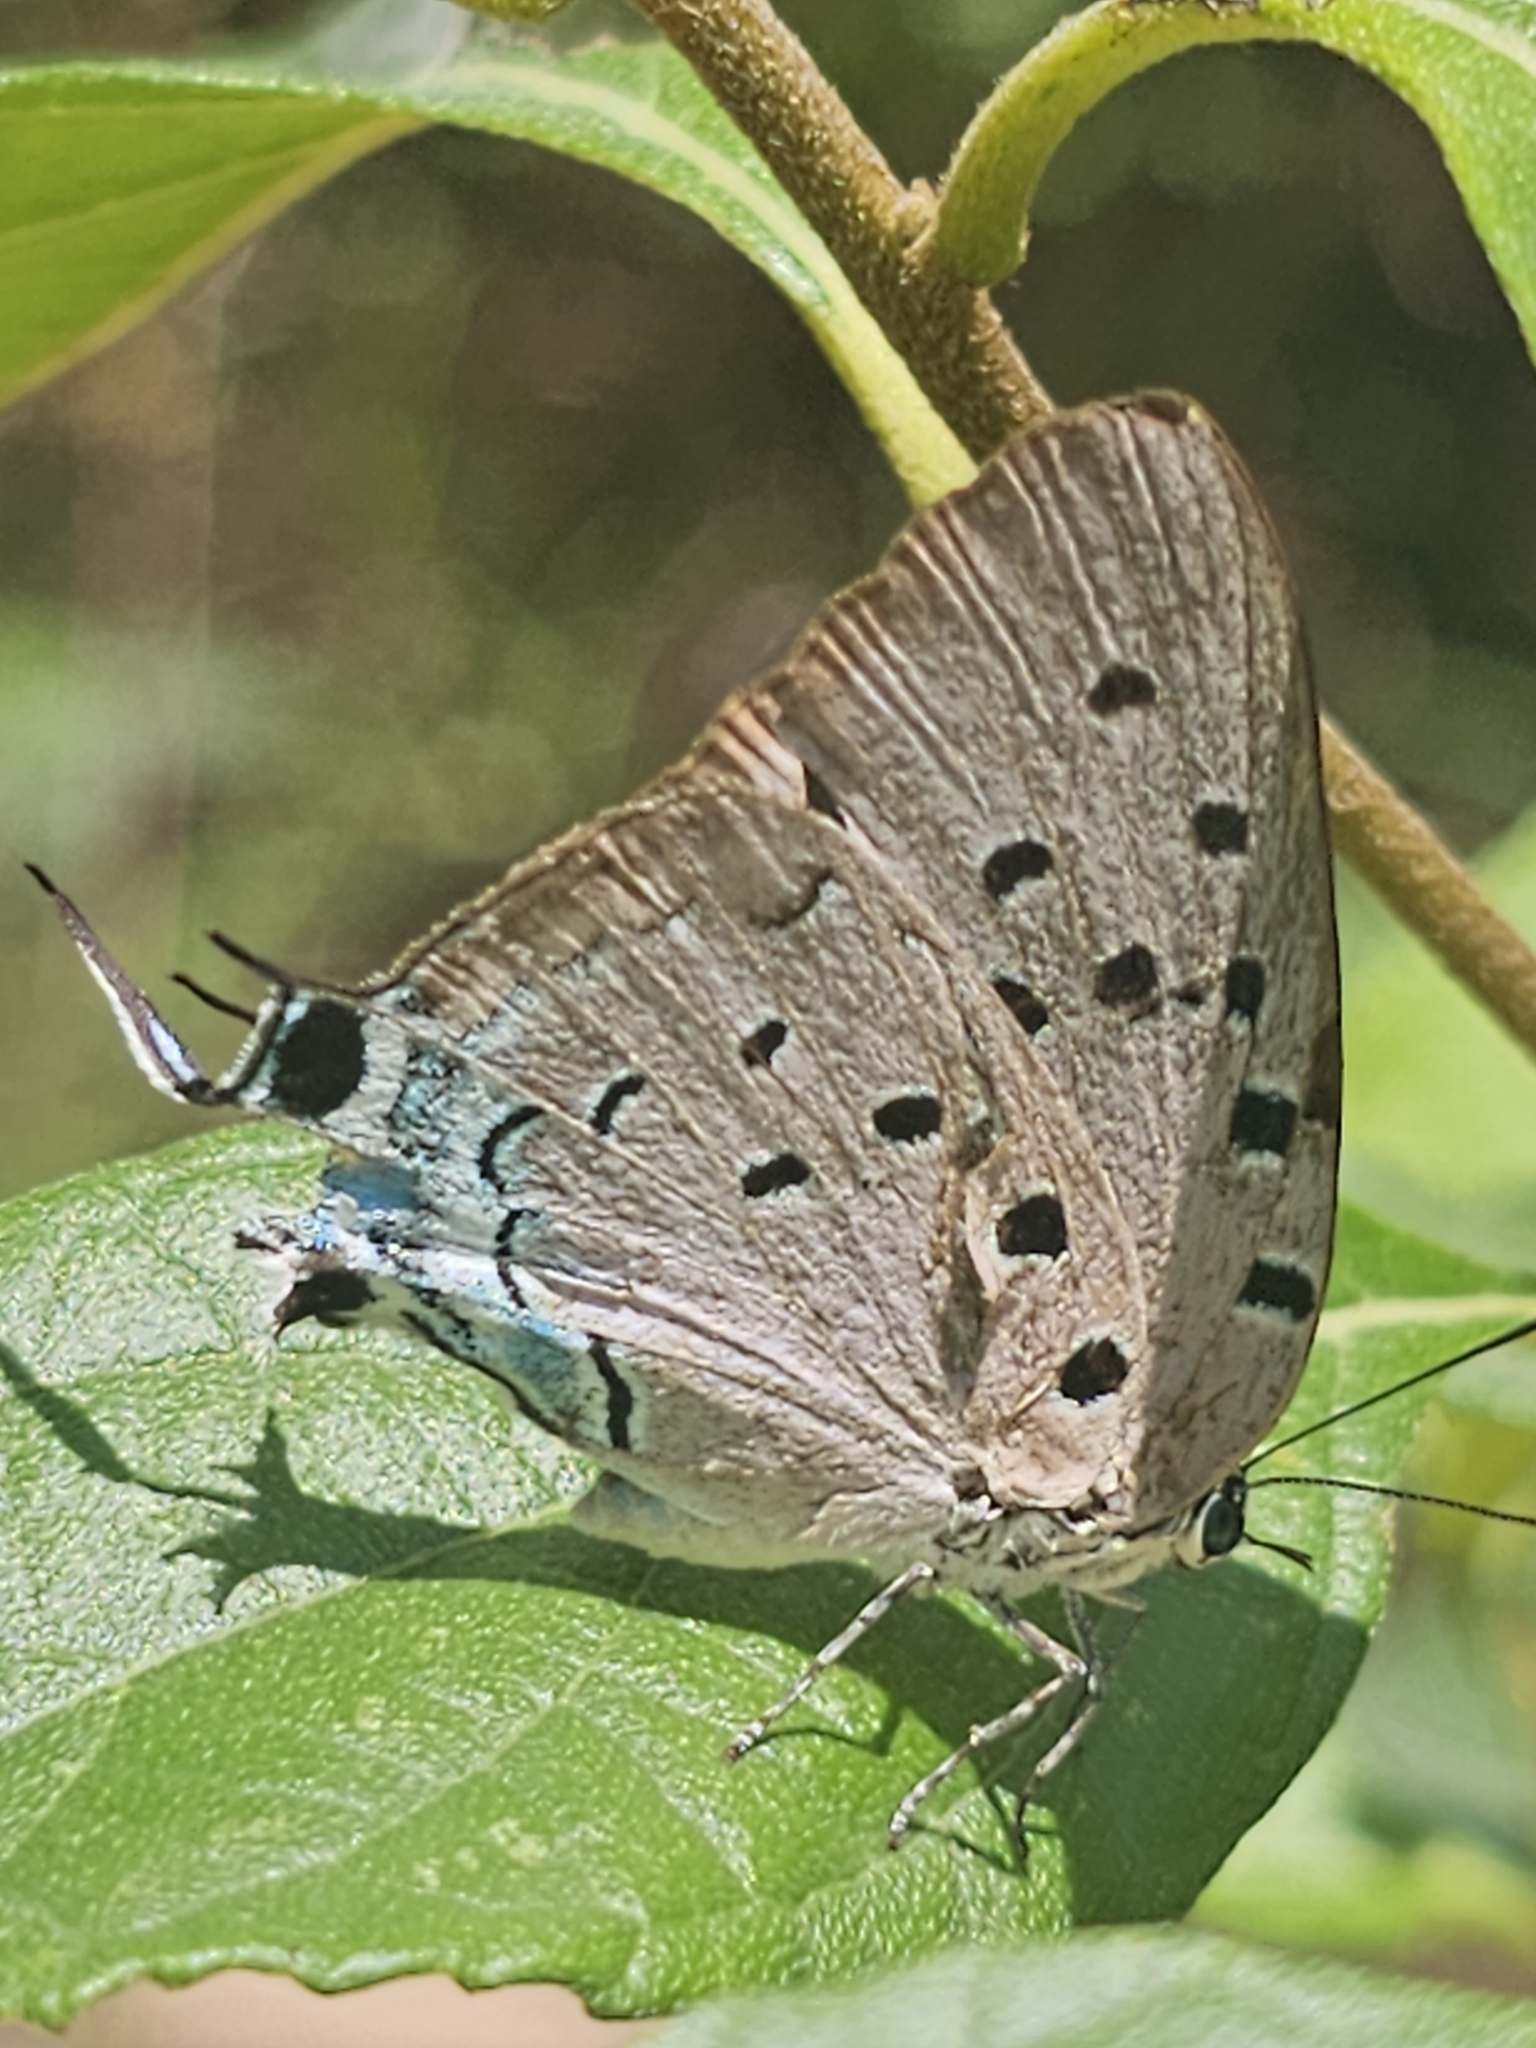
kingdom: Animalia
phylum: Arthropoda
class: Insecta
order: Lepidoptera
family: Lycaenidae
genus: Pseudolycaena
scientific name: Pseudolycaena marsyas
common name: Marsyas hairstreak
